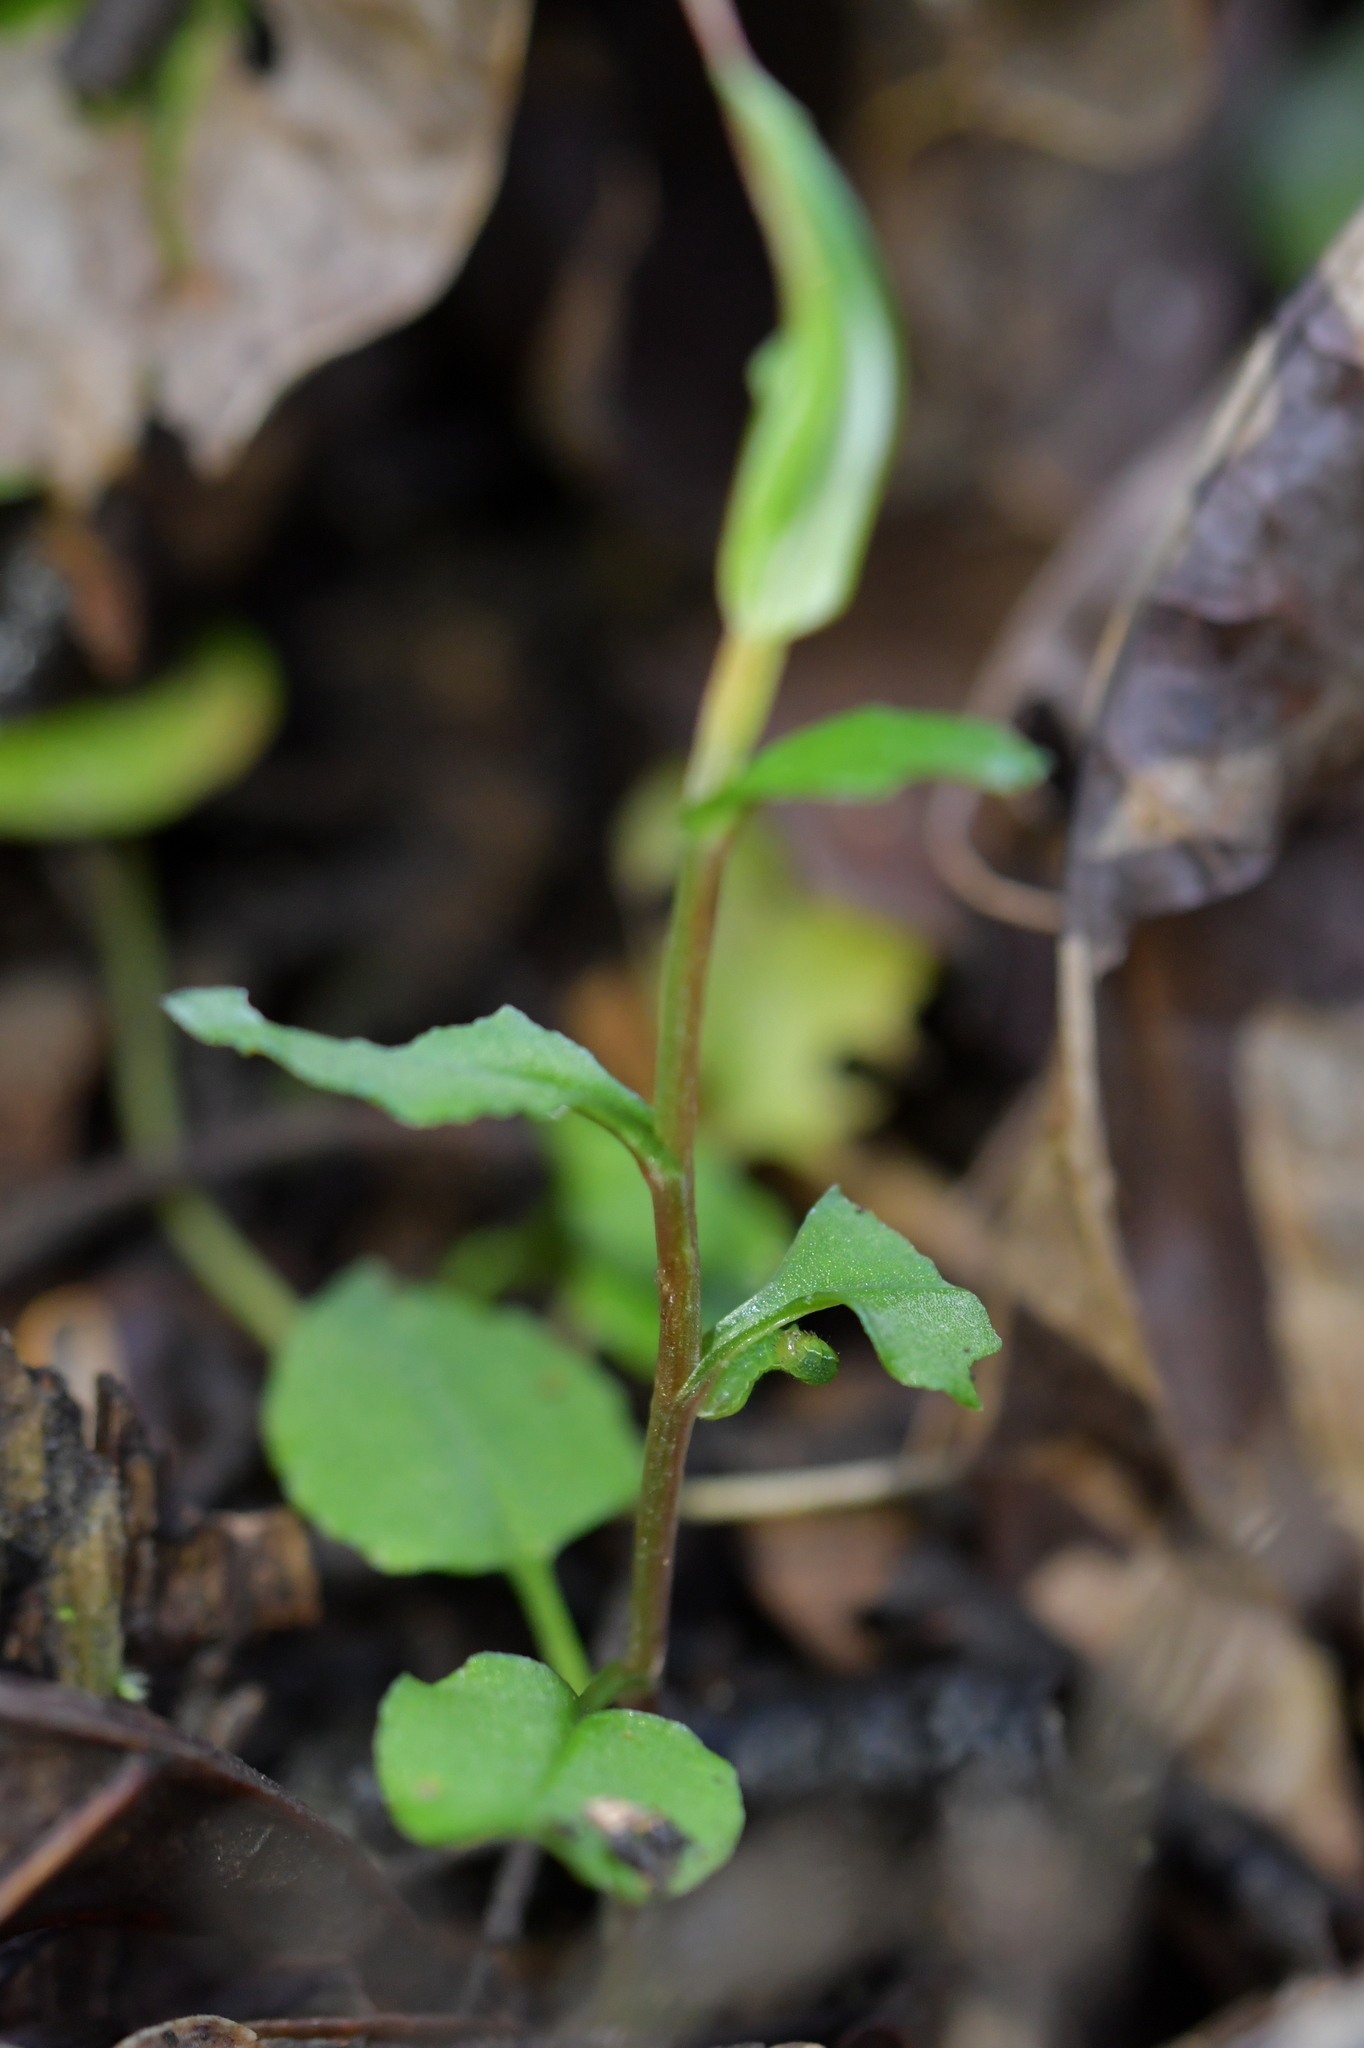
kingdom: Plantae
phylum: Tracheophyta
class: Liliopsida
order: Asparagales
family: Orchidaceae
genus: Pterostylis
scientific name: Pterostylis alobula
